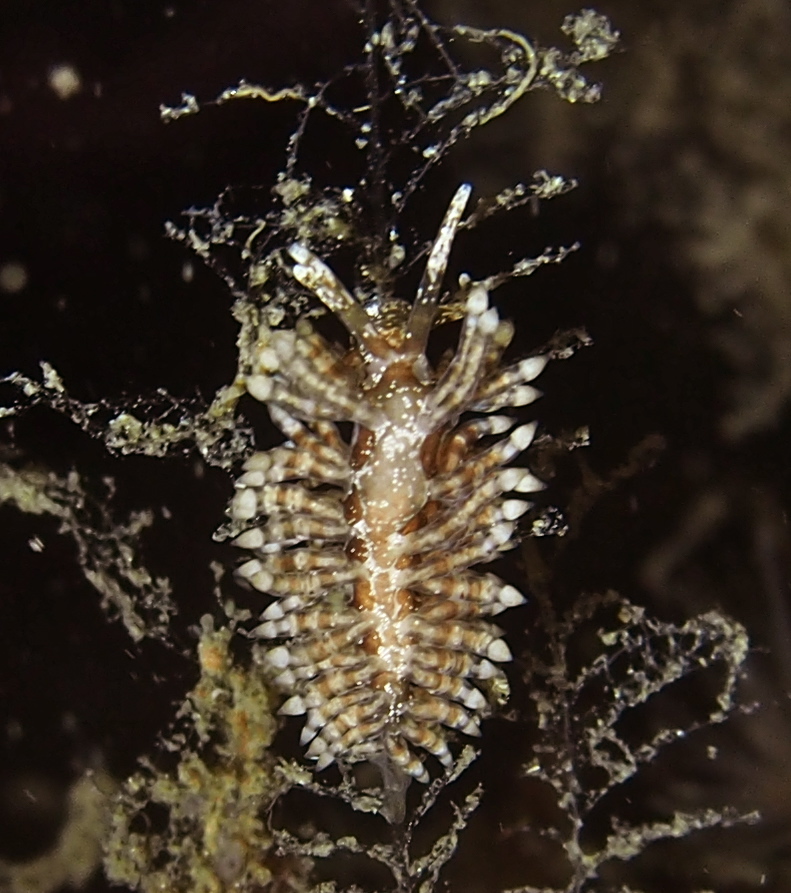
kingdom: Animalia
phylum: Mollusca
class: Gastropoda
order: Nudibranchia
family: Eubranchidae
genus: Eubranchus
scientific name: Eubranchus vittatus
